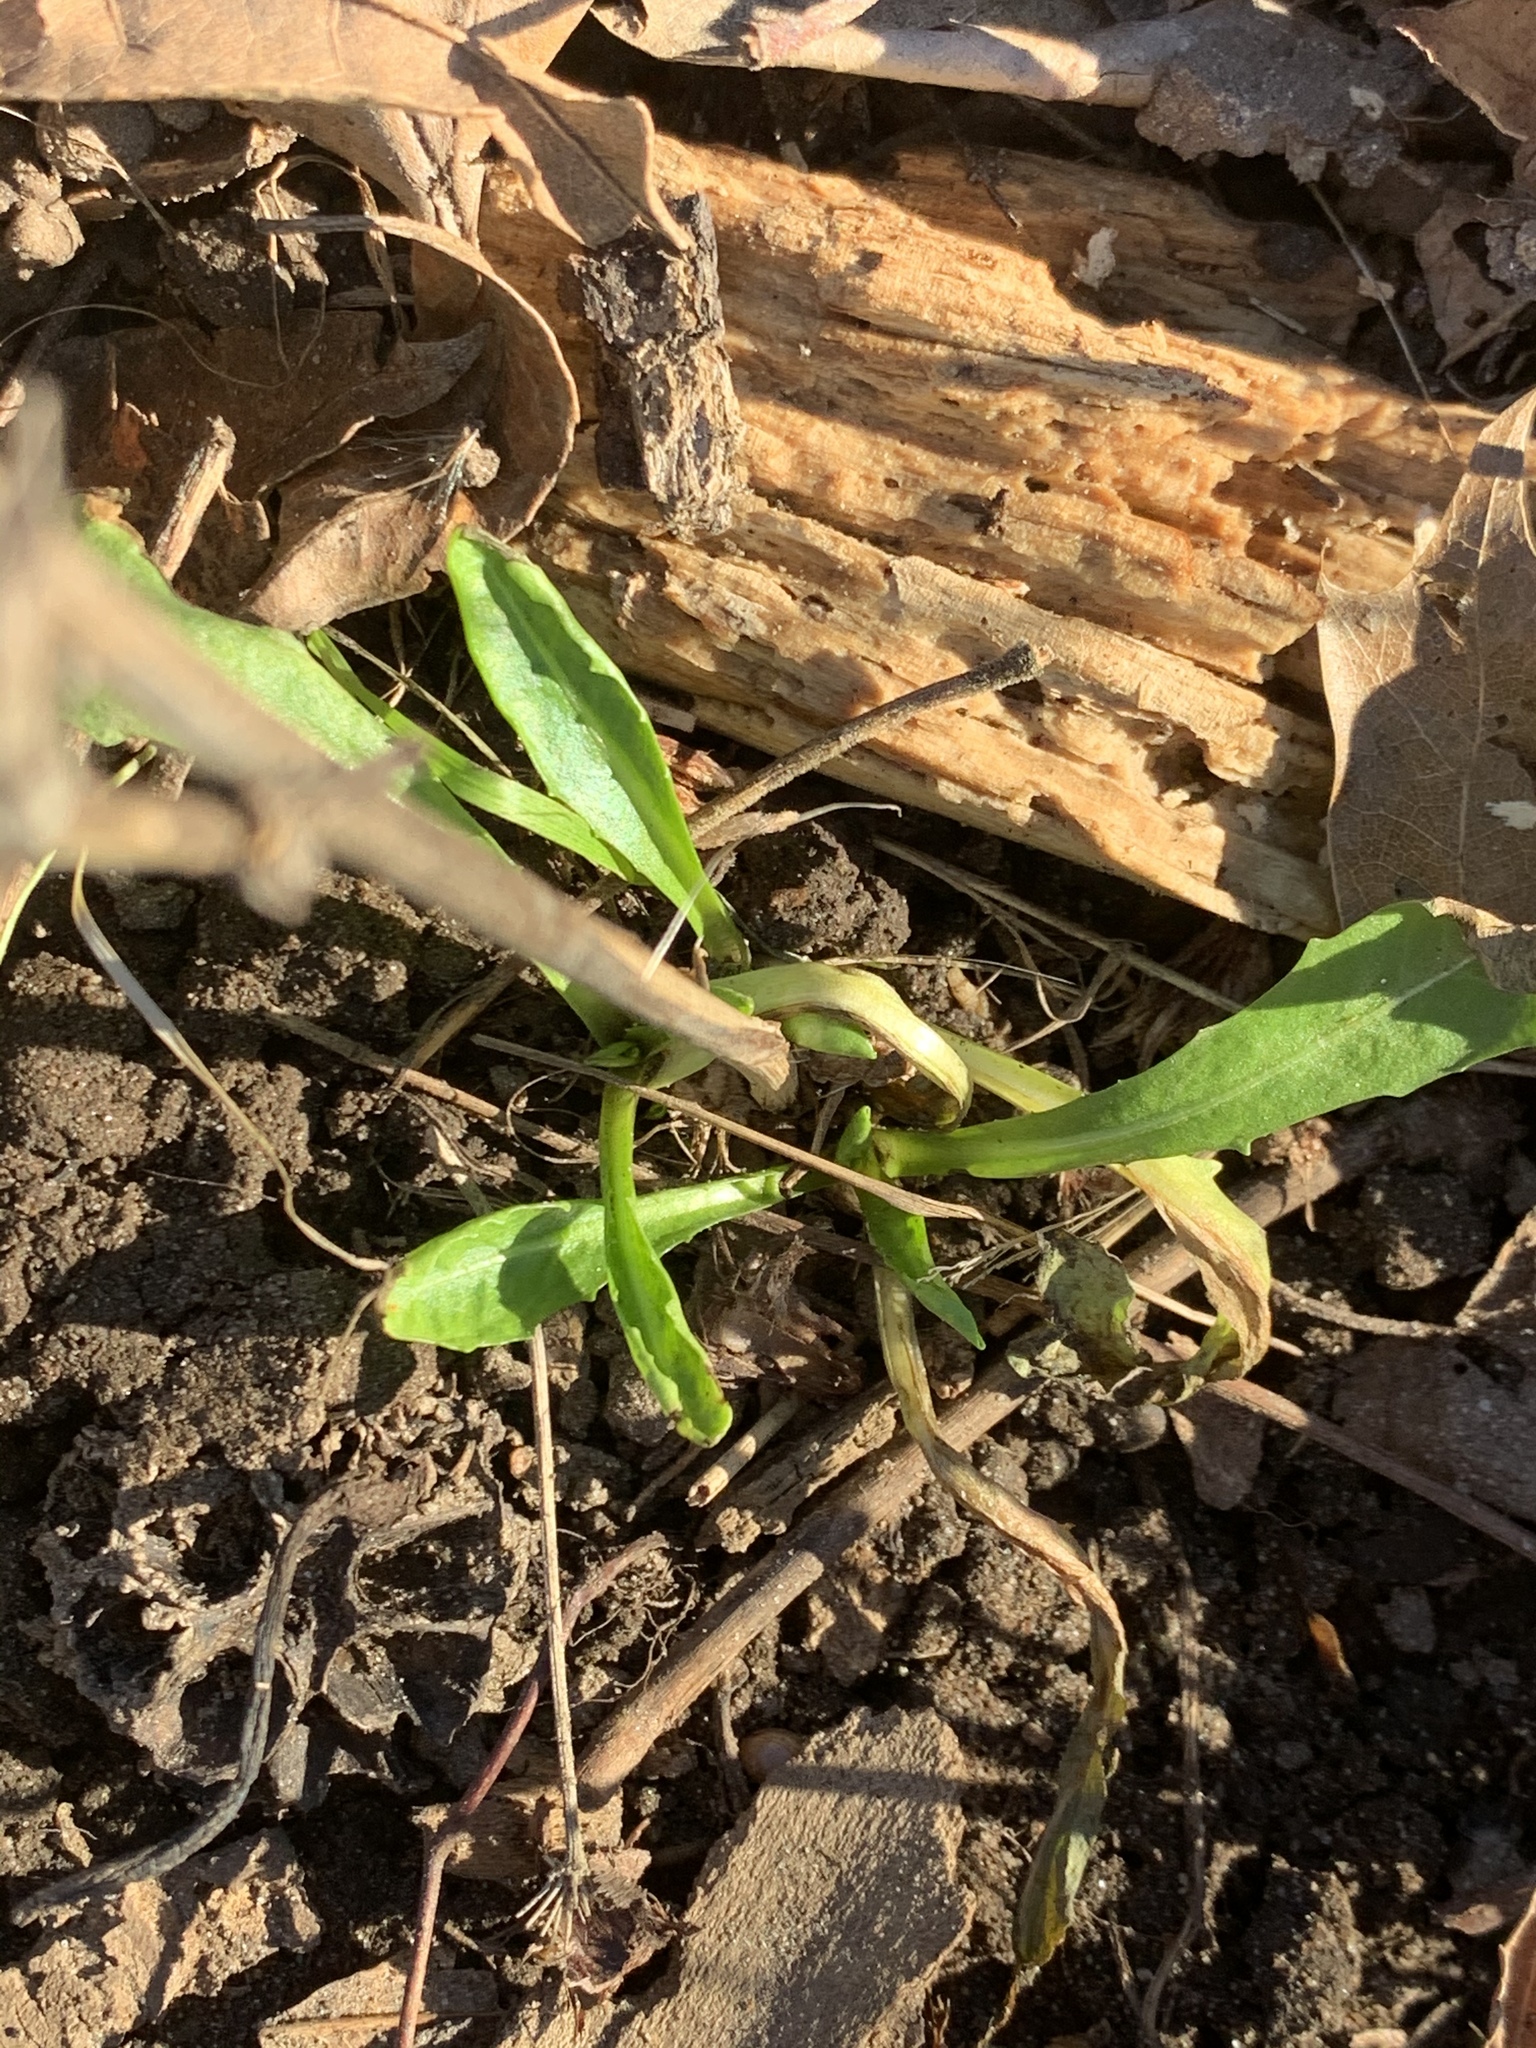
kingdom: Plantae
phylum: Tracheophyta
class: Magnoliopsida
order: Asterales
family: Asteraceae
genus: Cichorium
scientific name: Cichorium intybus
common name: Chicory
